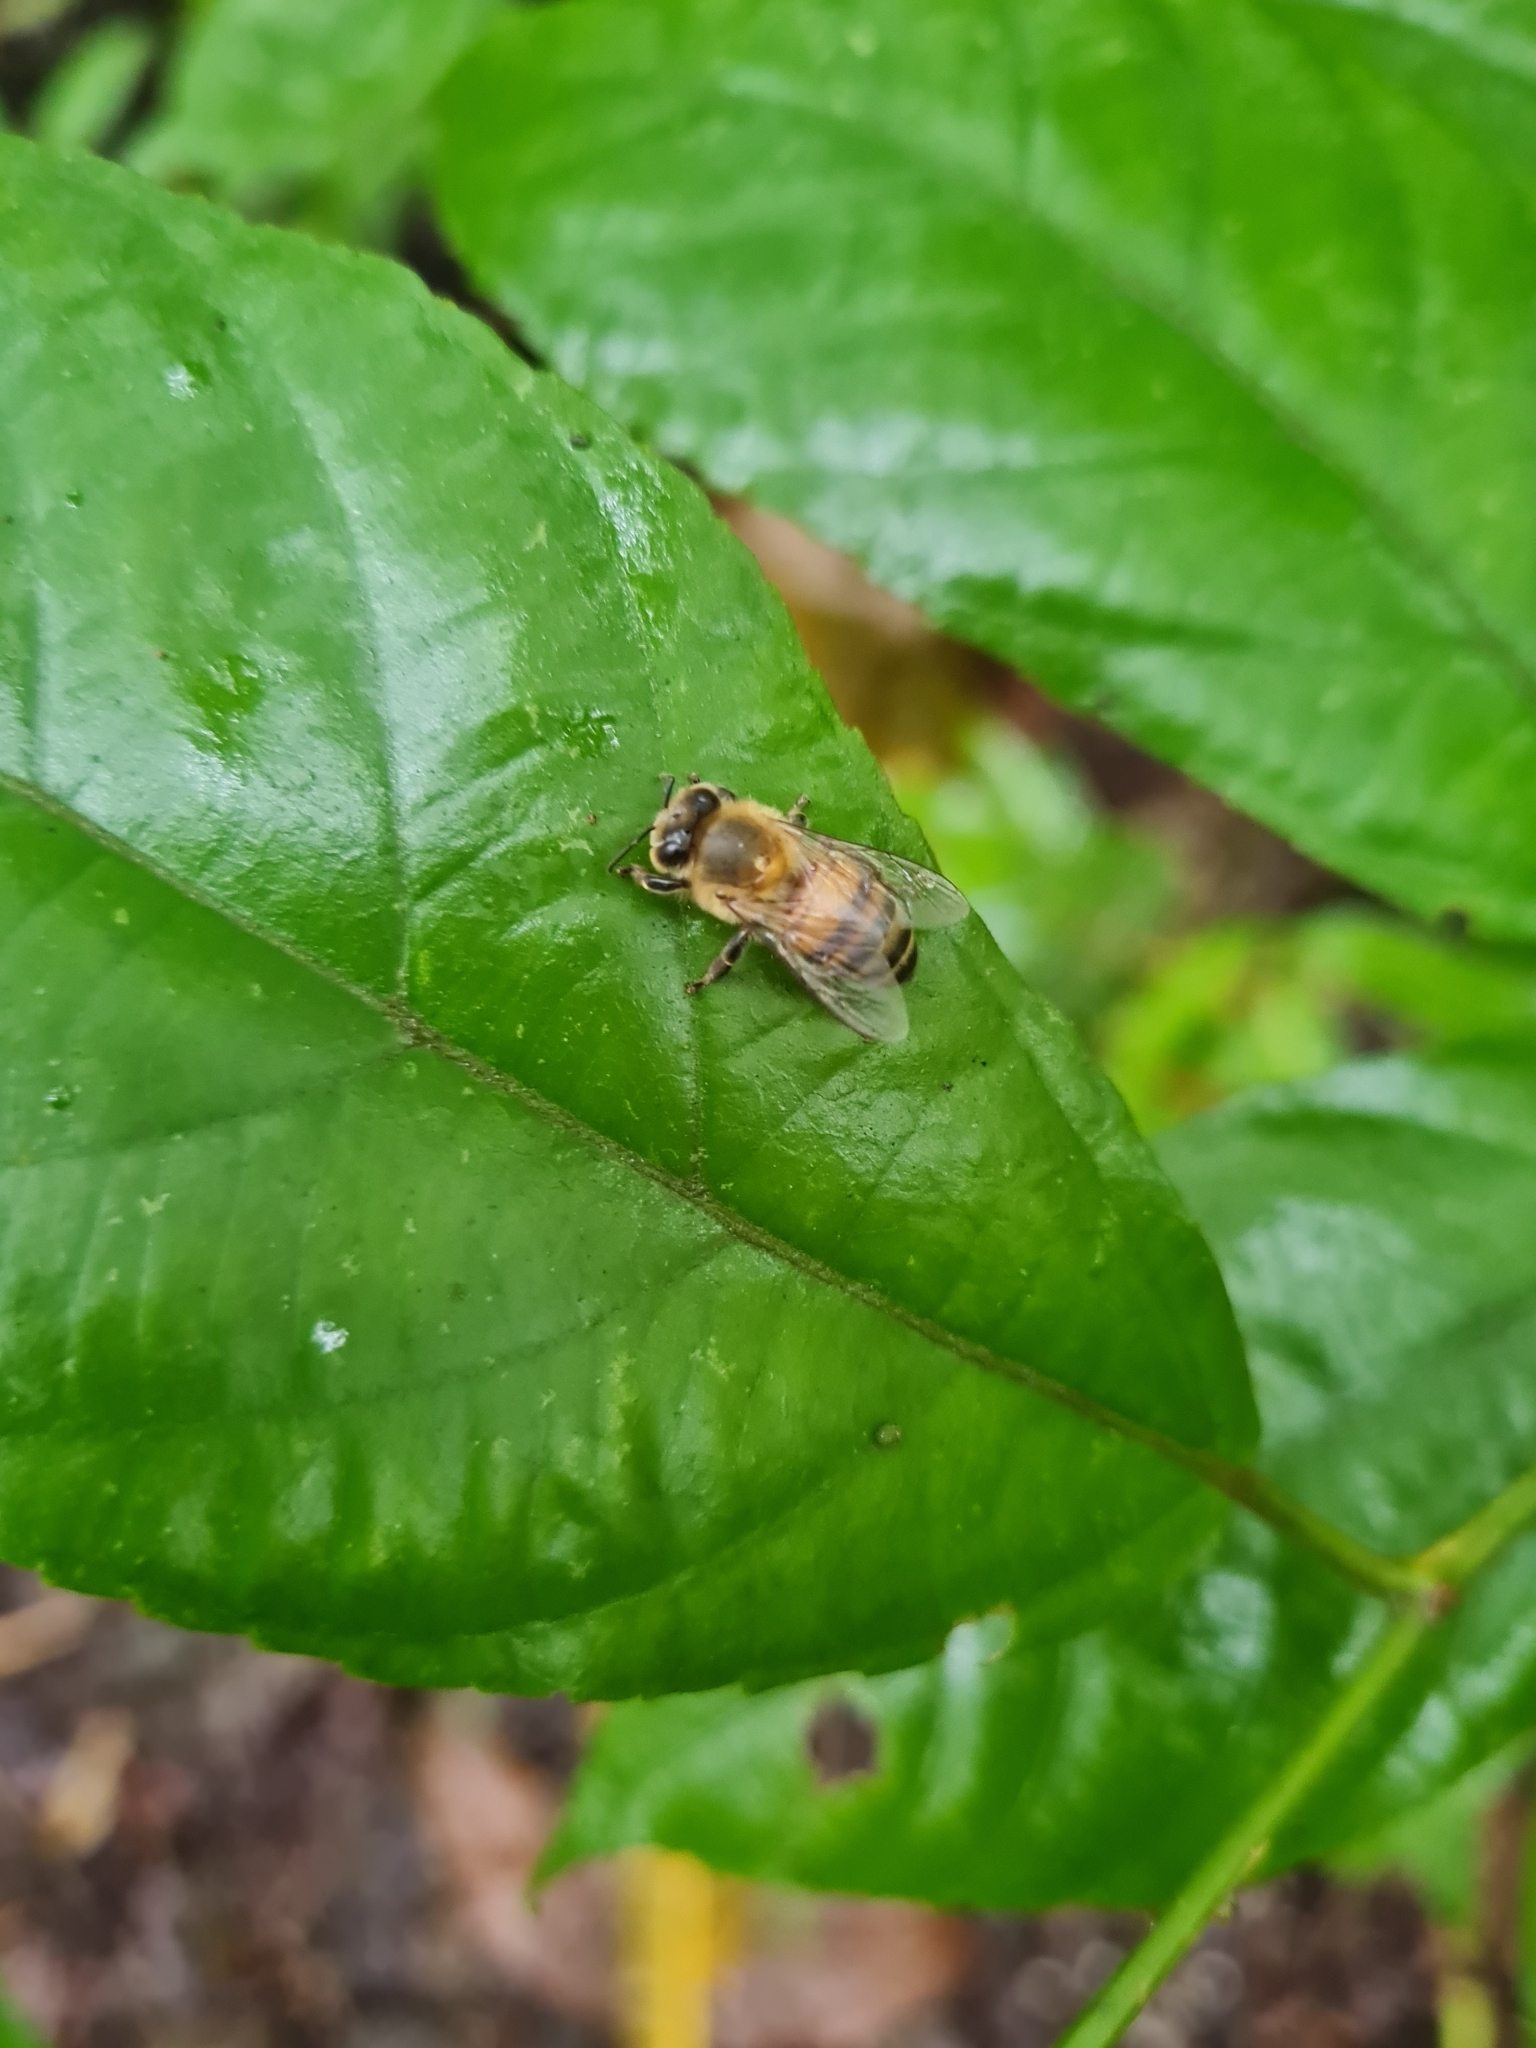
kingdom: Animalia
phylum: Arthropoda
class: Insecta
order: Hymenoptera
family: Apidae
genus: Apis
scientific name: Apis mellifera
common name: Honey bee
